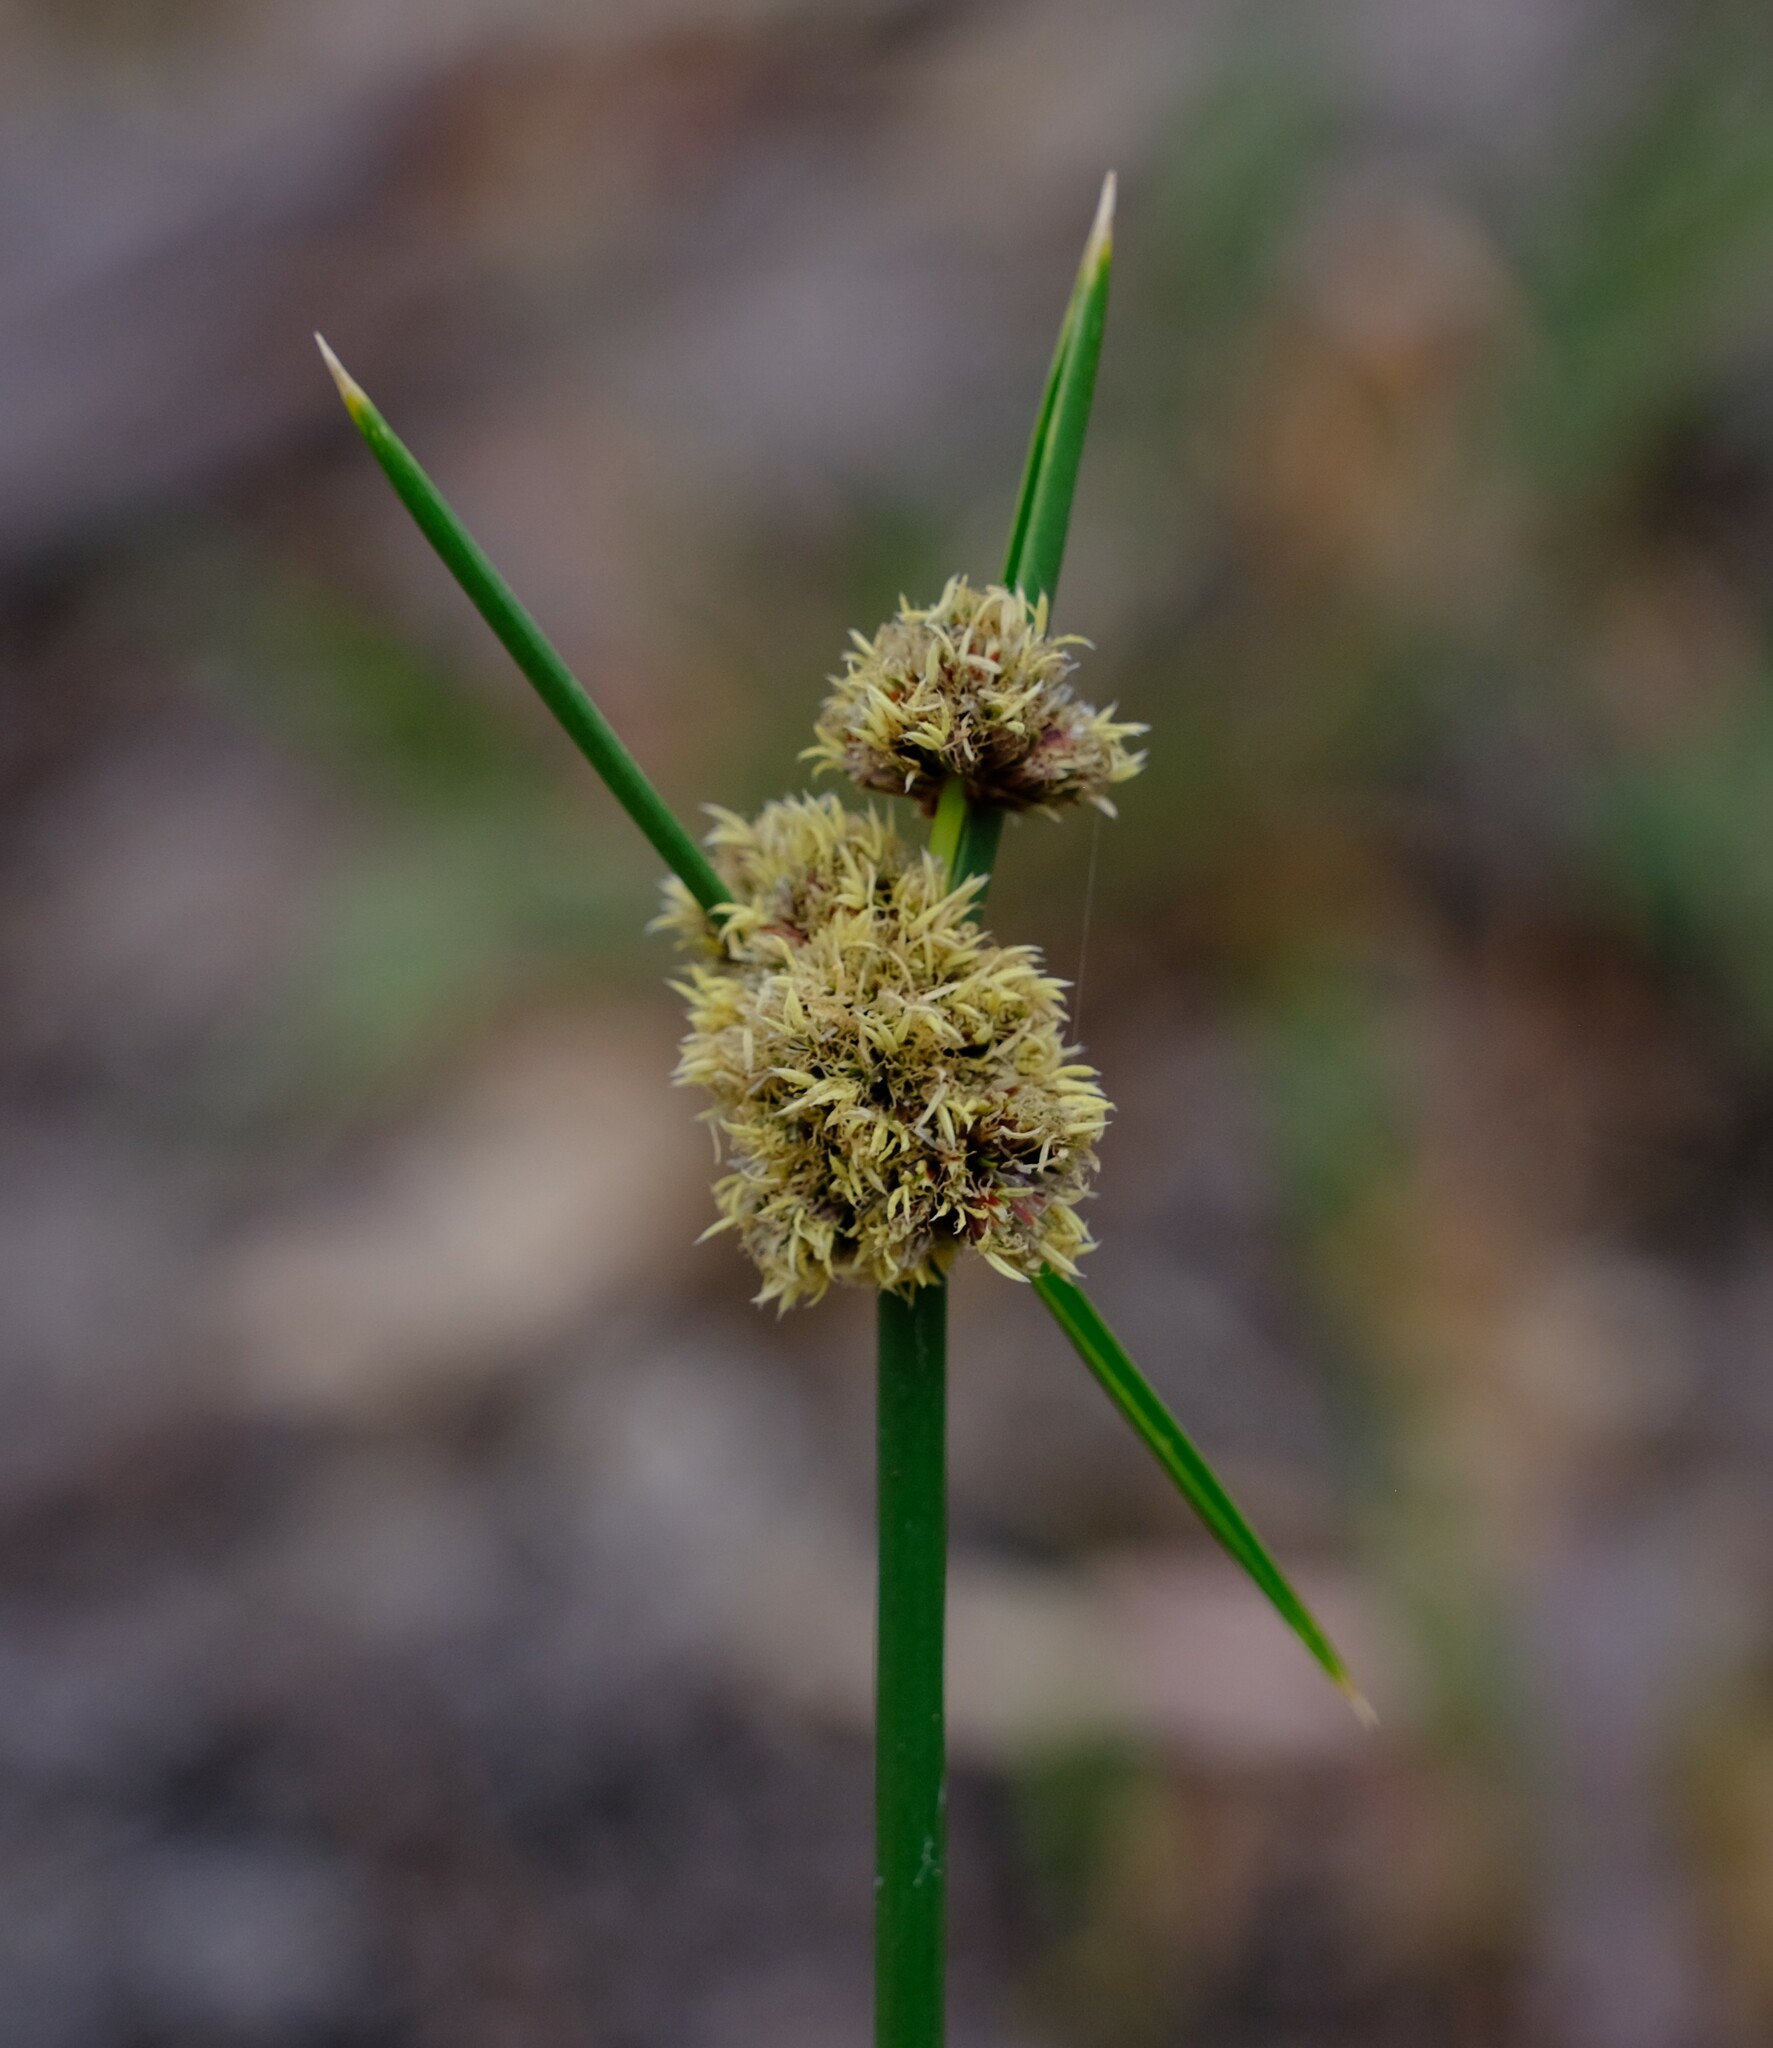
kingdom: Plantae
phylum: Tracheophyta
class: Liliopsida
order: Poales
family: Cyperaceae
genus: Cyperus
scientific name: Cyperus gymnocaulos
